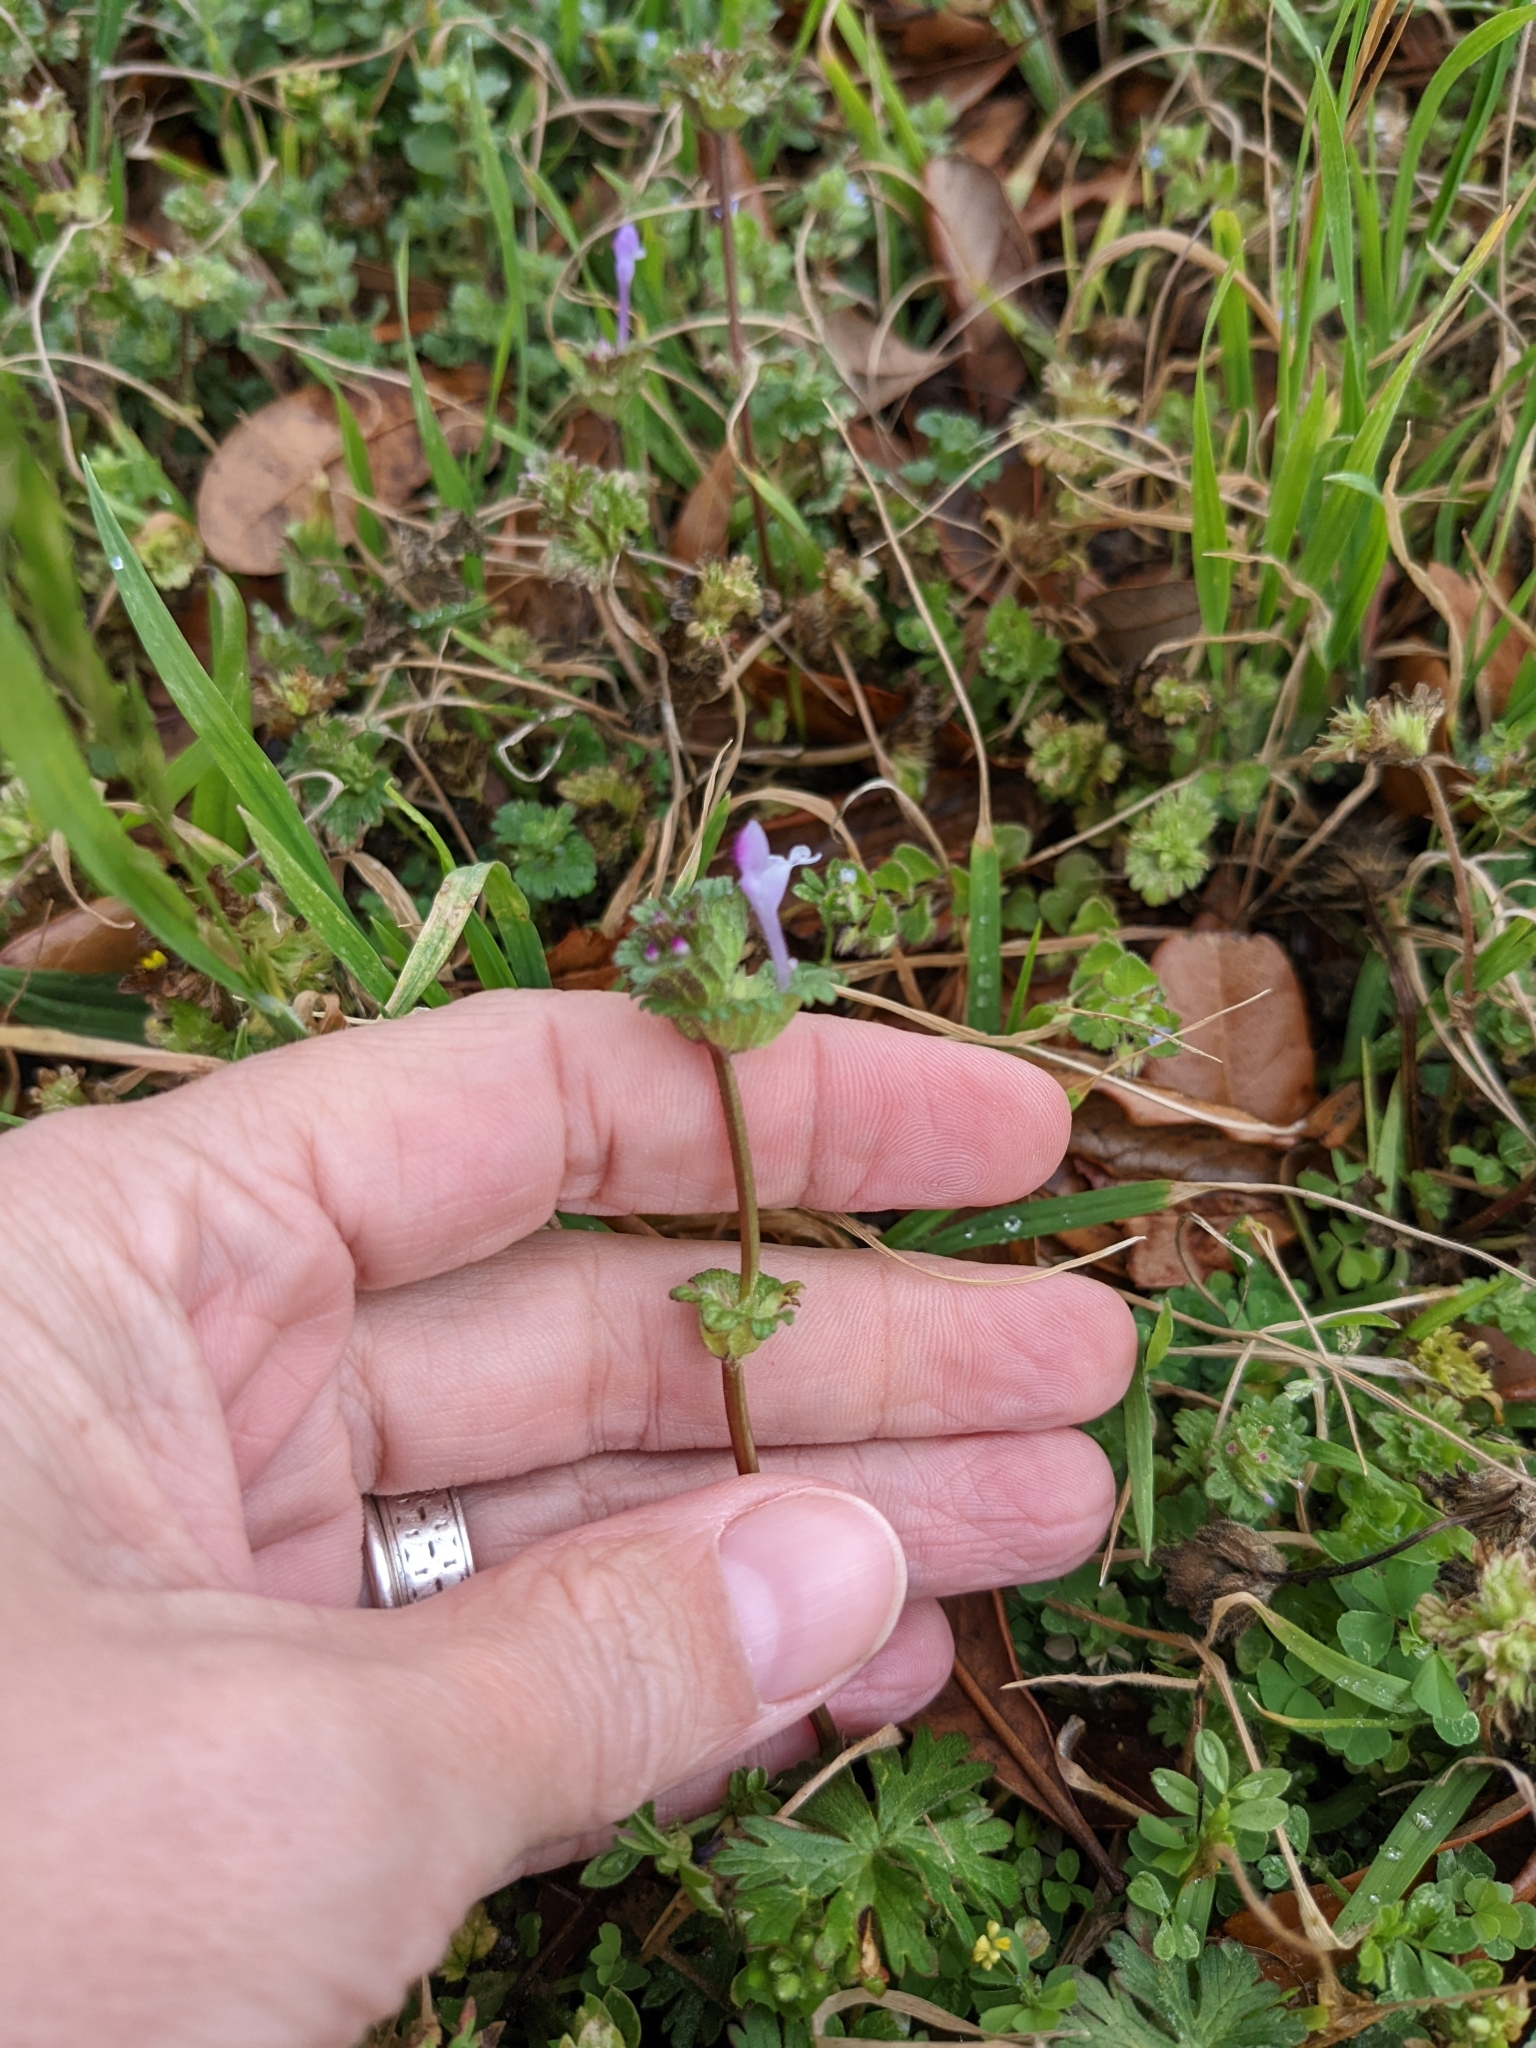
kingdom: Plantae
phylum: Tracheophyta
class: Magnoliopsida
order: Lamiales
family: Lamiaceae
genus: Lamium
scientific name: Lamium amplexicaule
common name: Henbit dead-nettle
